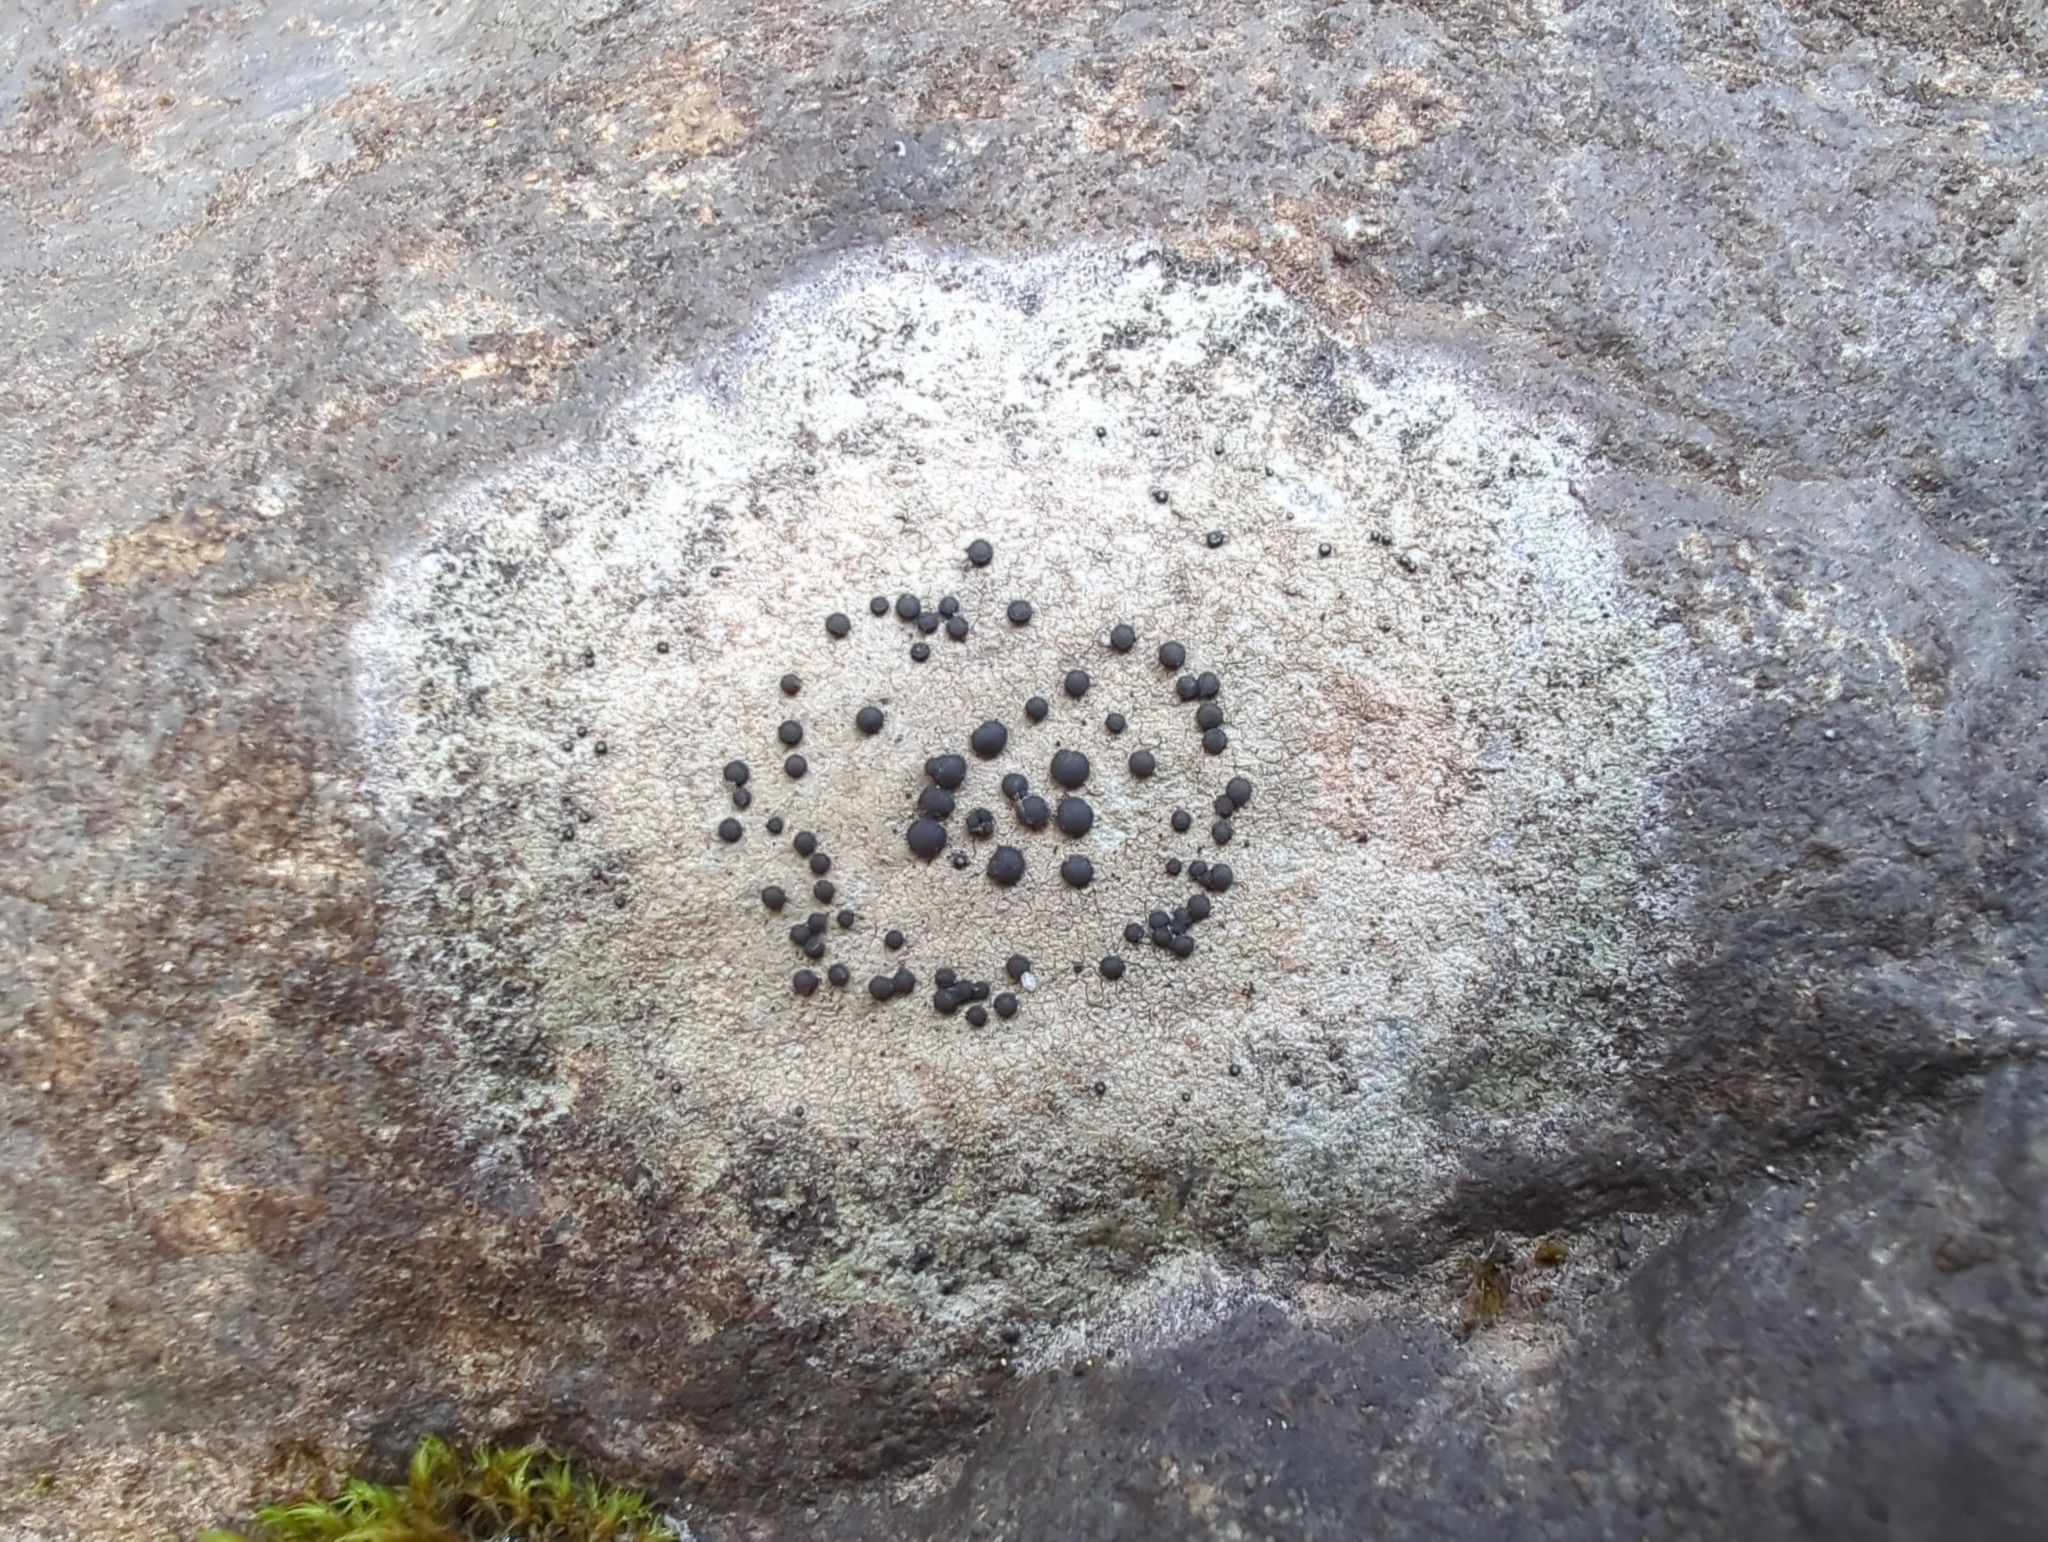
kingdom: Fungi
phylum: Ascomycota
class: Lecanoromycetes
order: Lecideales
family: Lecideaceae
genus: Porpidia
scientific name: Porpidia crustulata
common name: Concentric boulder lichen
